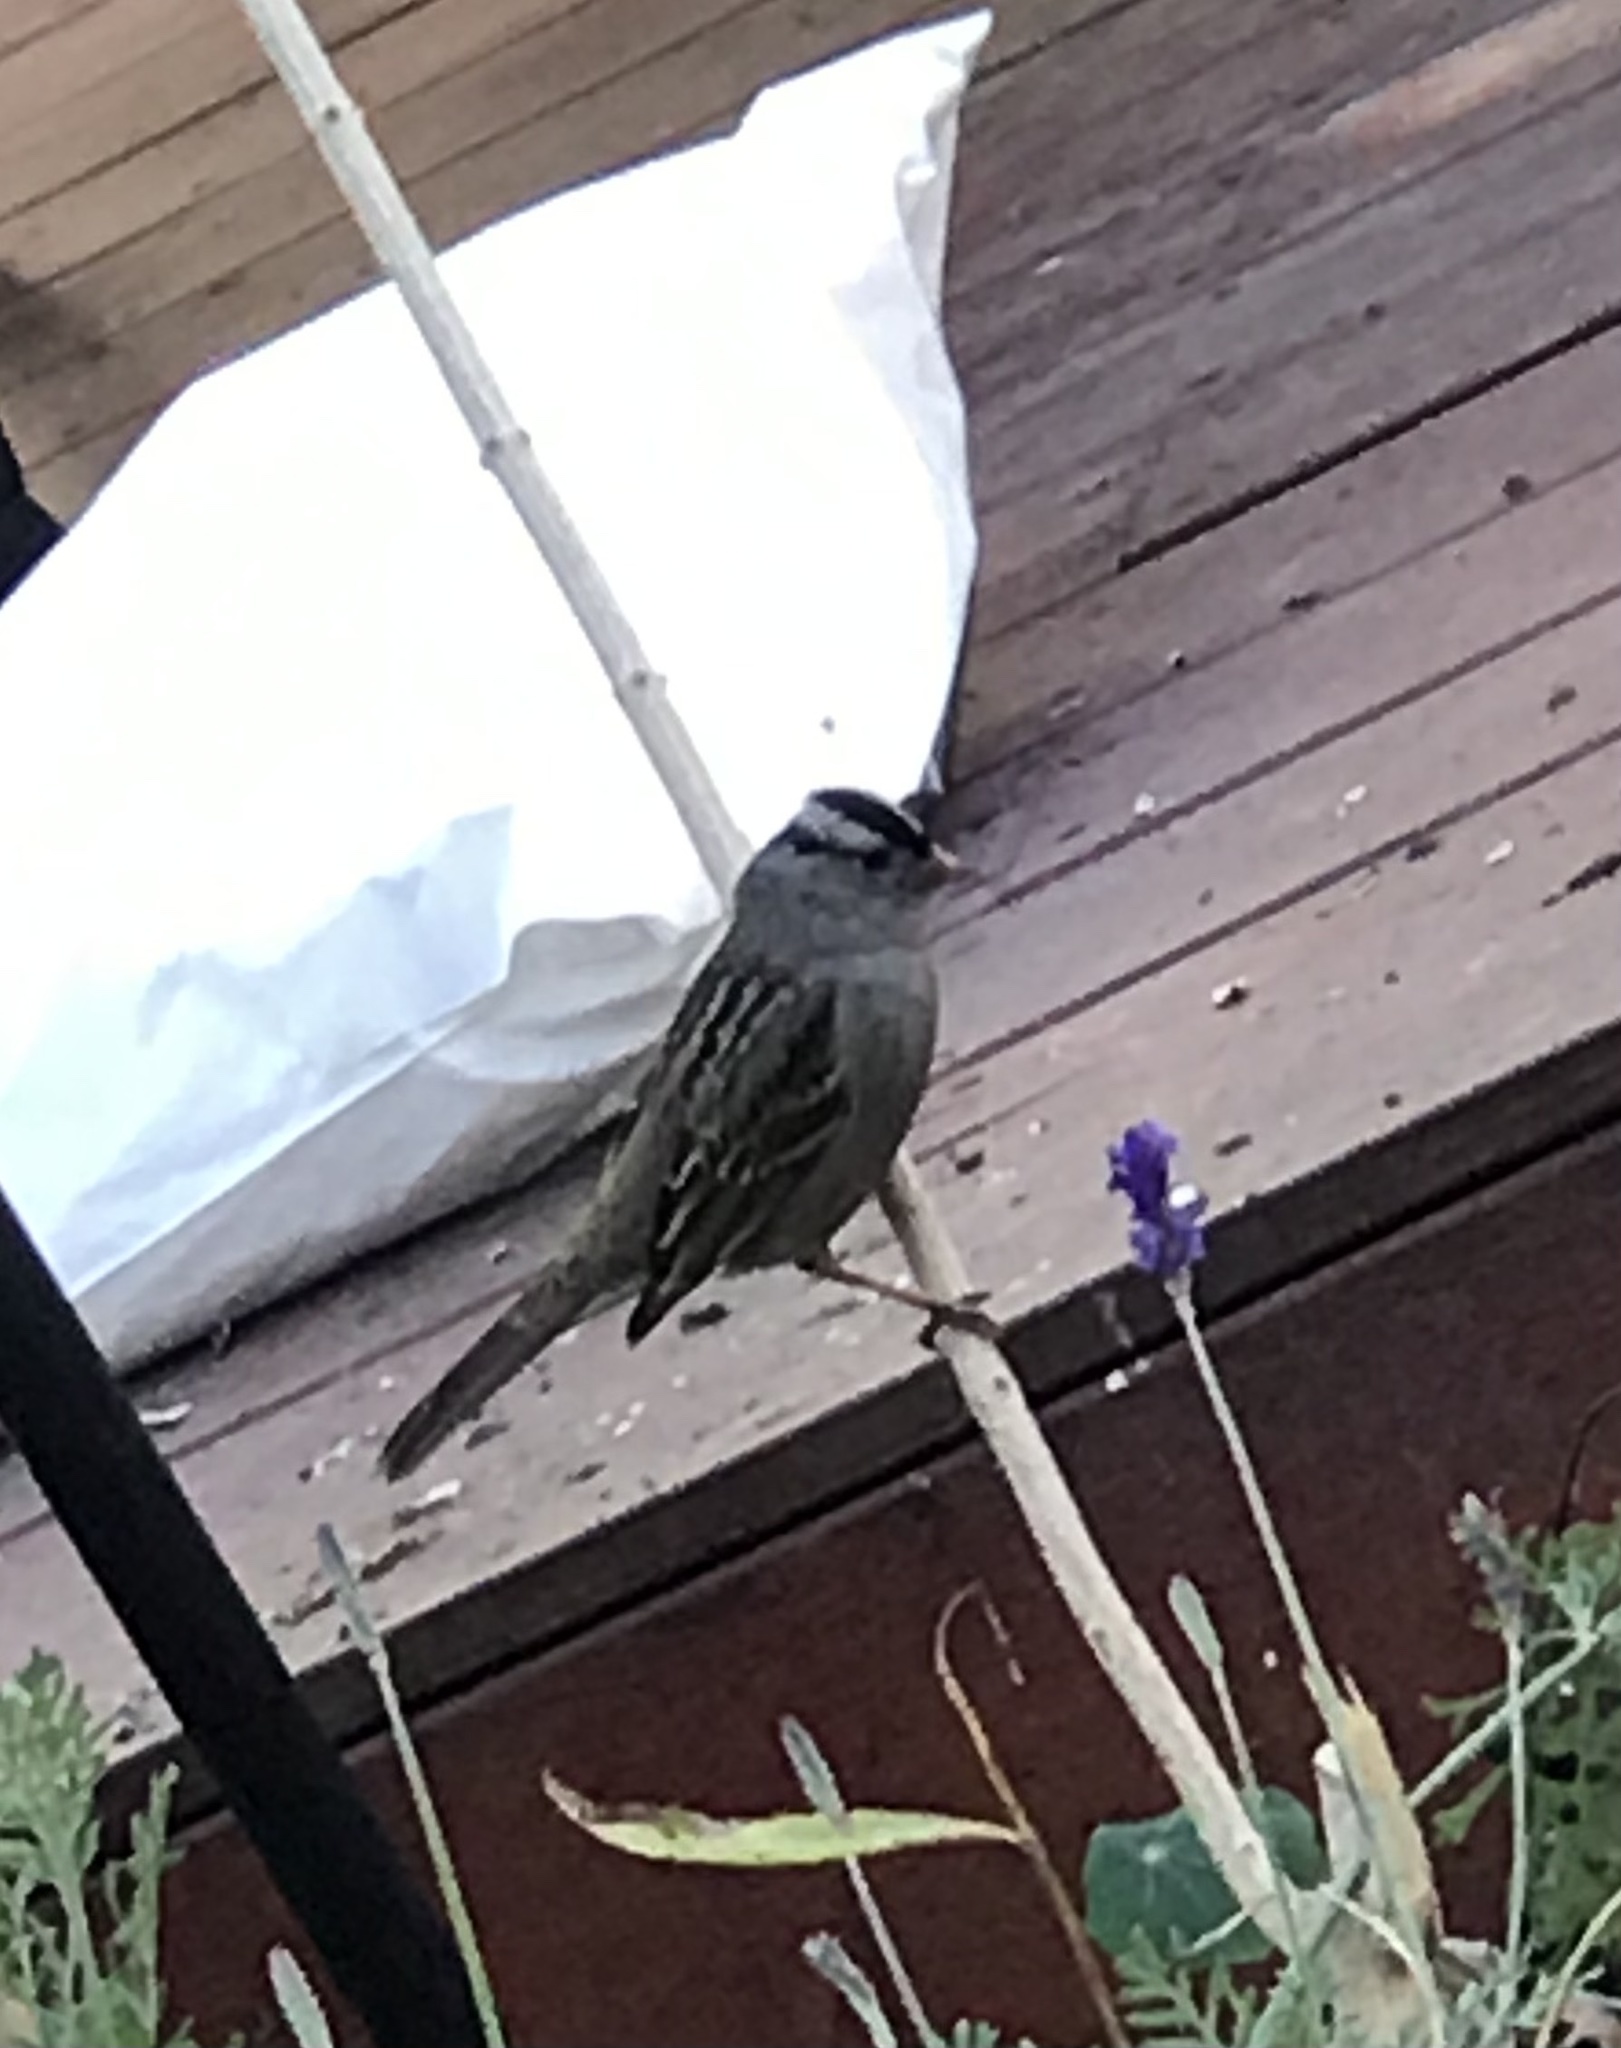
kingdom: Animalia
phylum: Chordata
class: Aves
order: Passeriformes
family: Passerellidae
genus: Zonotrichia
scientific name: Zonotrichia leucophrys
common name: White-crowned sparrow
